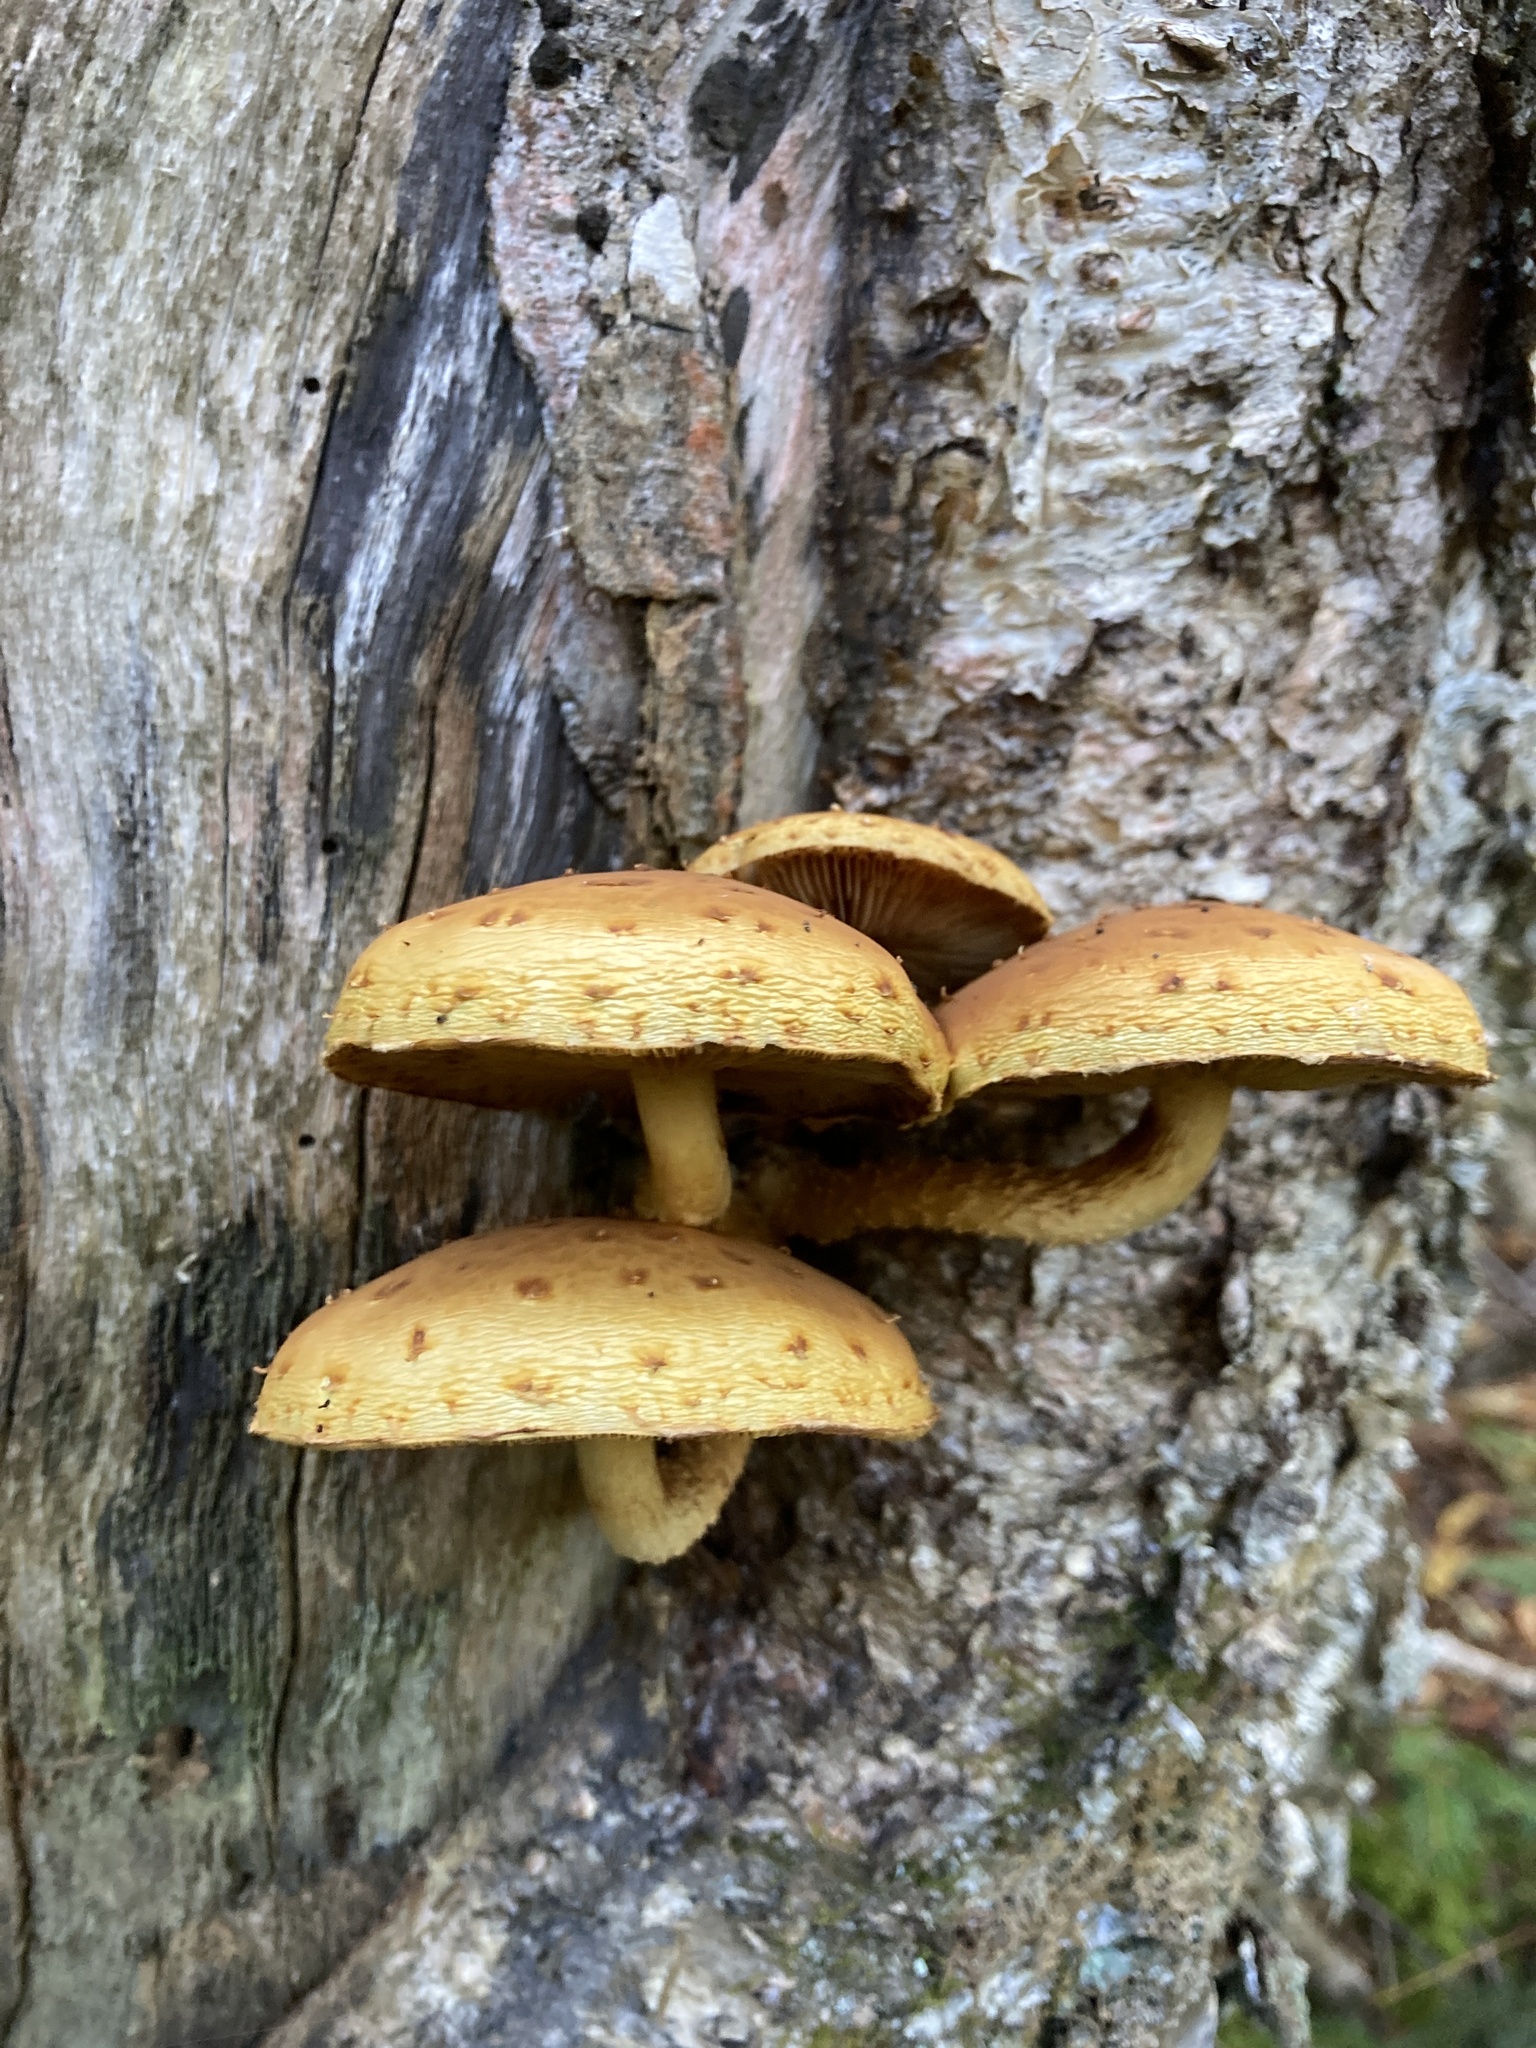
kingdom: Fungi
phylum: Basidiomycota
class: Agaricomycetes
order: Agaricales
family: Strophariaceae
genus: Pholiota
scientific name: Pholiota aurivella
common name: Golden scalycap
